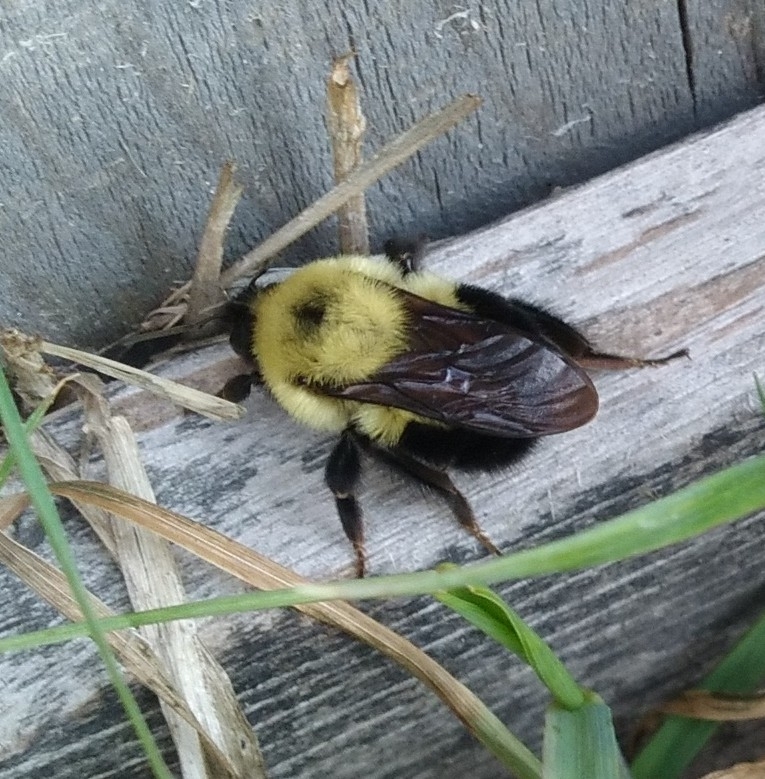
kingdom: Animalia
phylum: Arthropoda
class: Insecta
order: Hymenoptera
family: Apidae
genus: Bombus
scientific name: Bombus bimaculatus
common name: Two-spotted bumble bee
